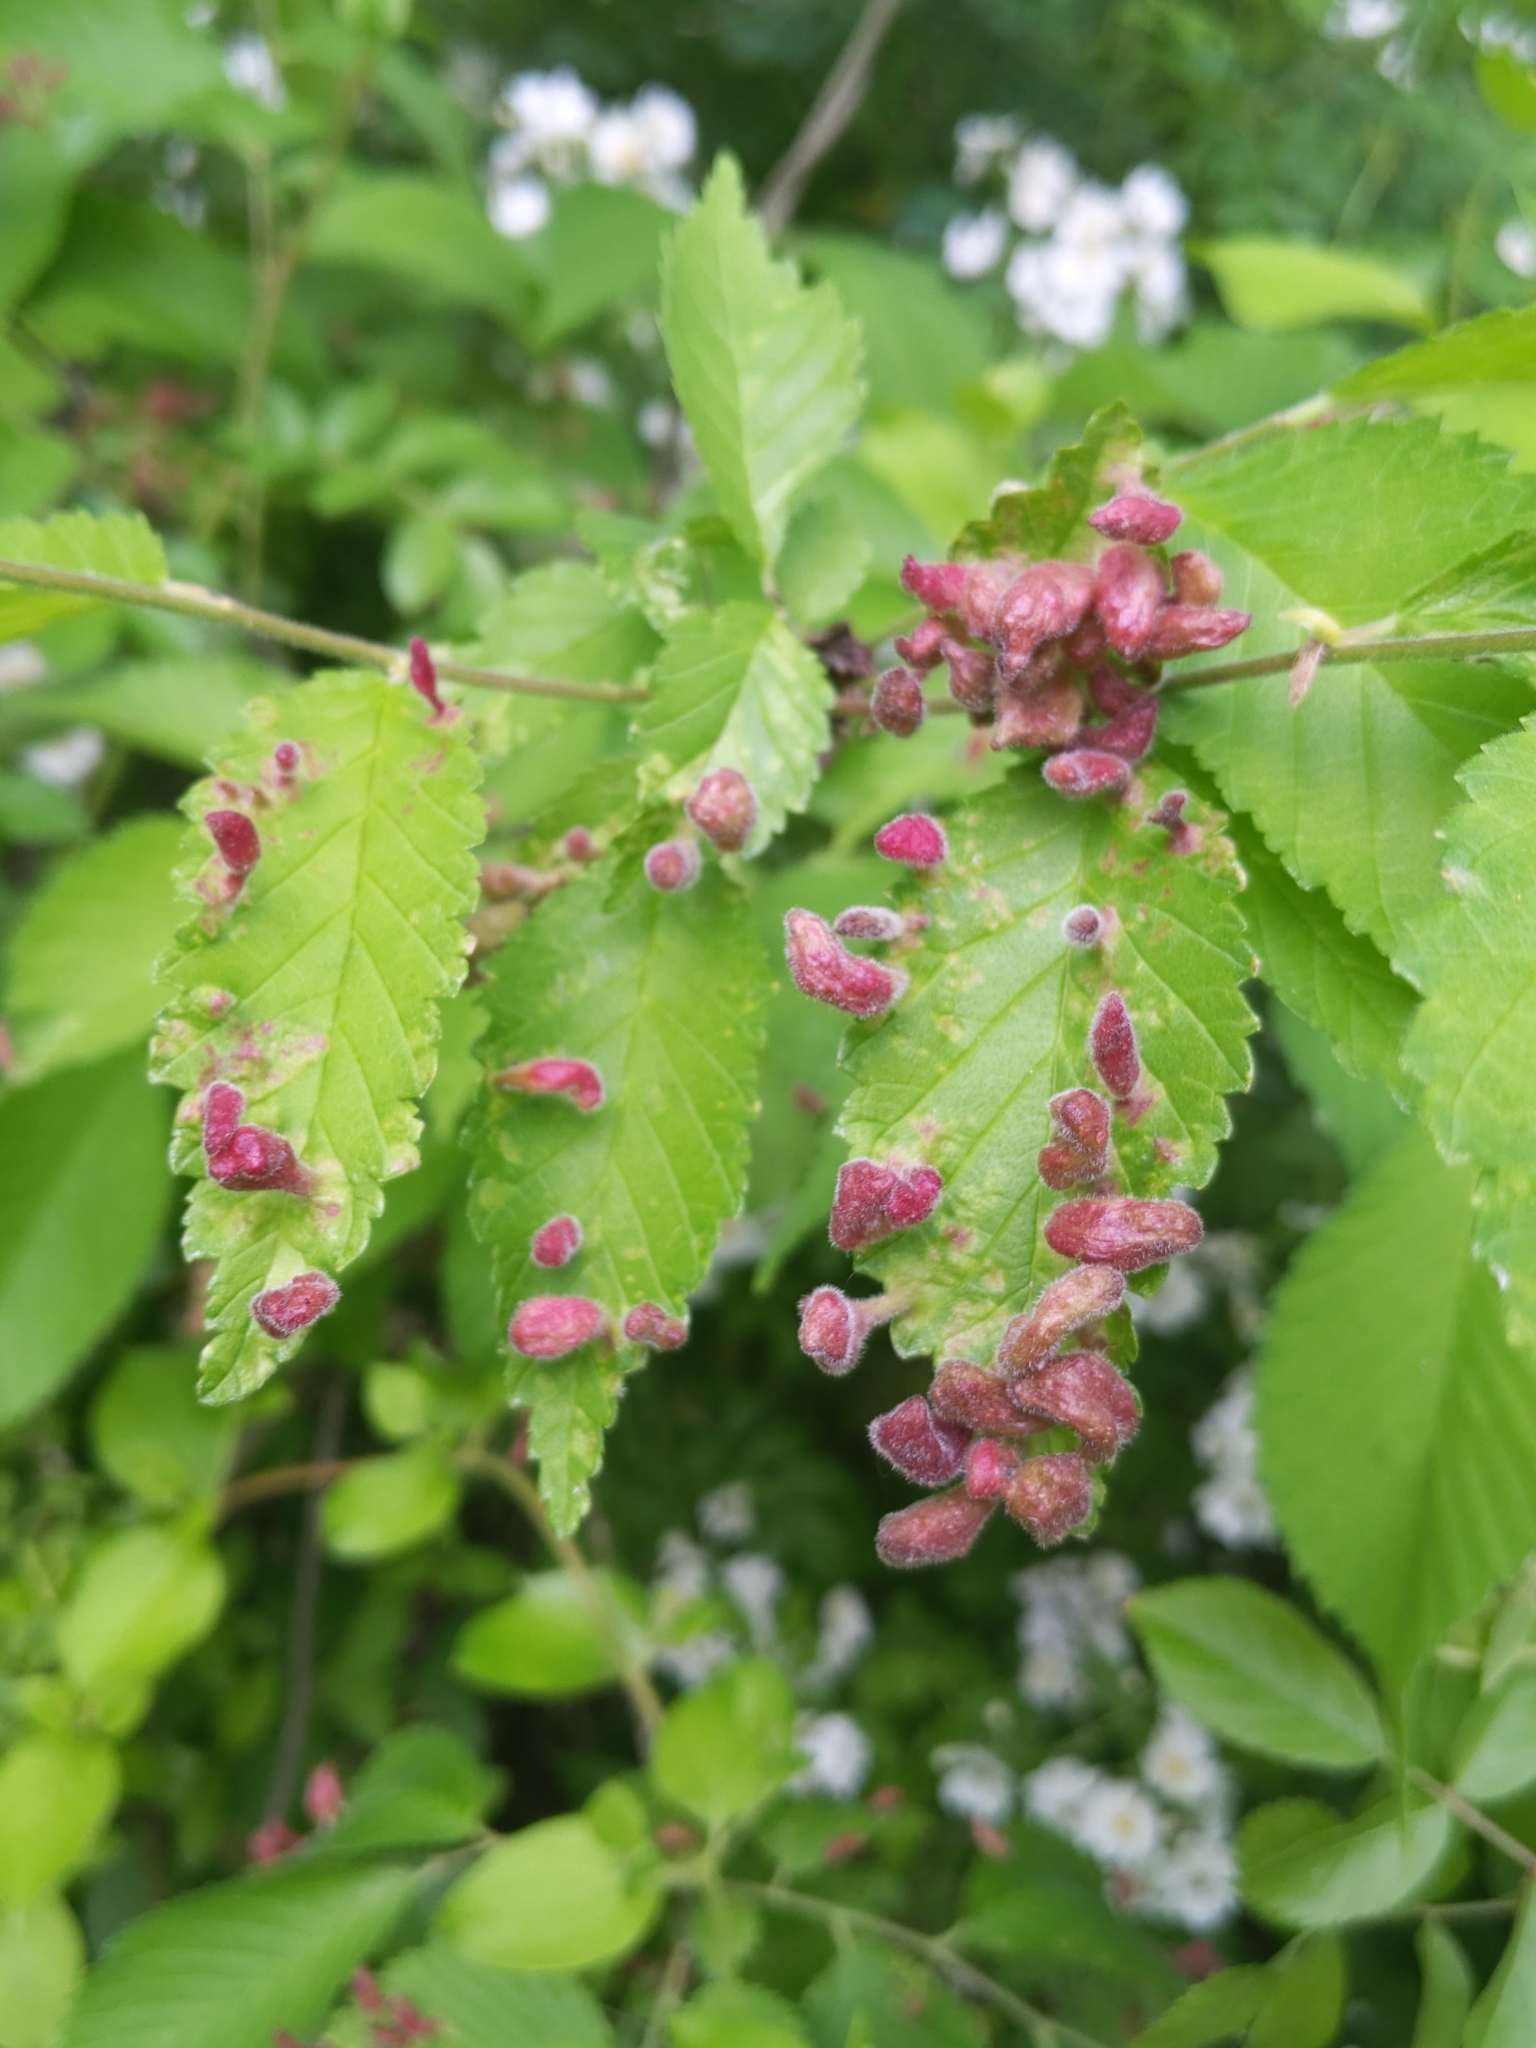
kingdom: Animalia
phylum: Arthropoda
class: Insecta
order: Hemiptera
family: Aphididae
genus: Tetraneura
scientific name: Tetraneura nigriabdominalis
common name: Aphid
